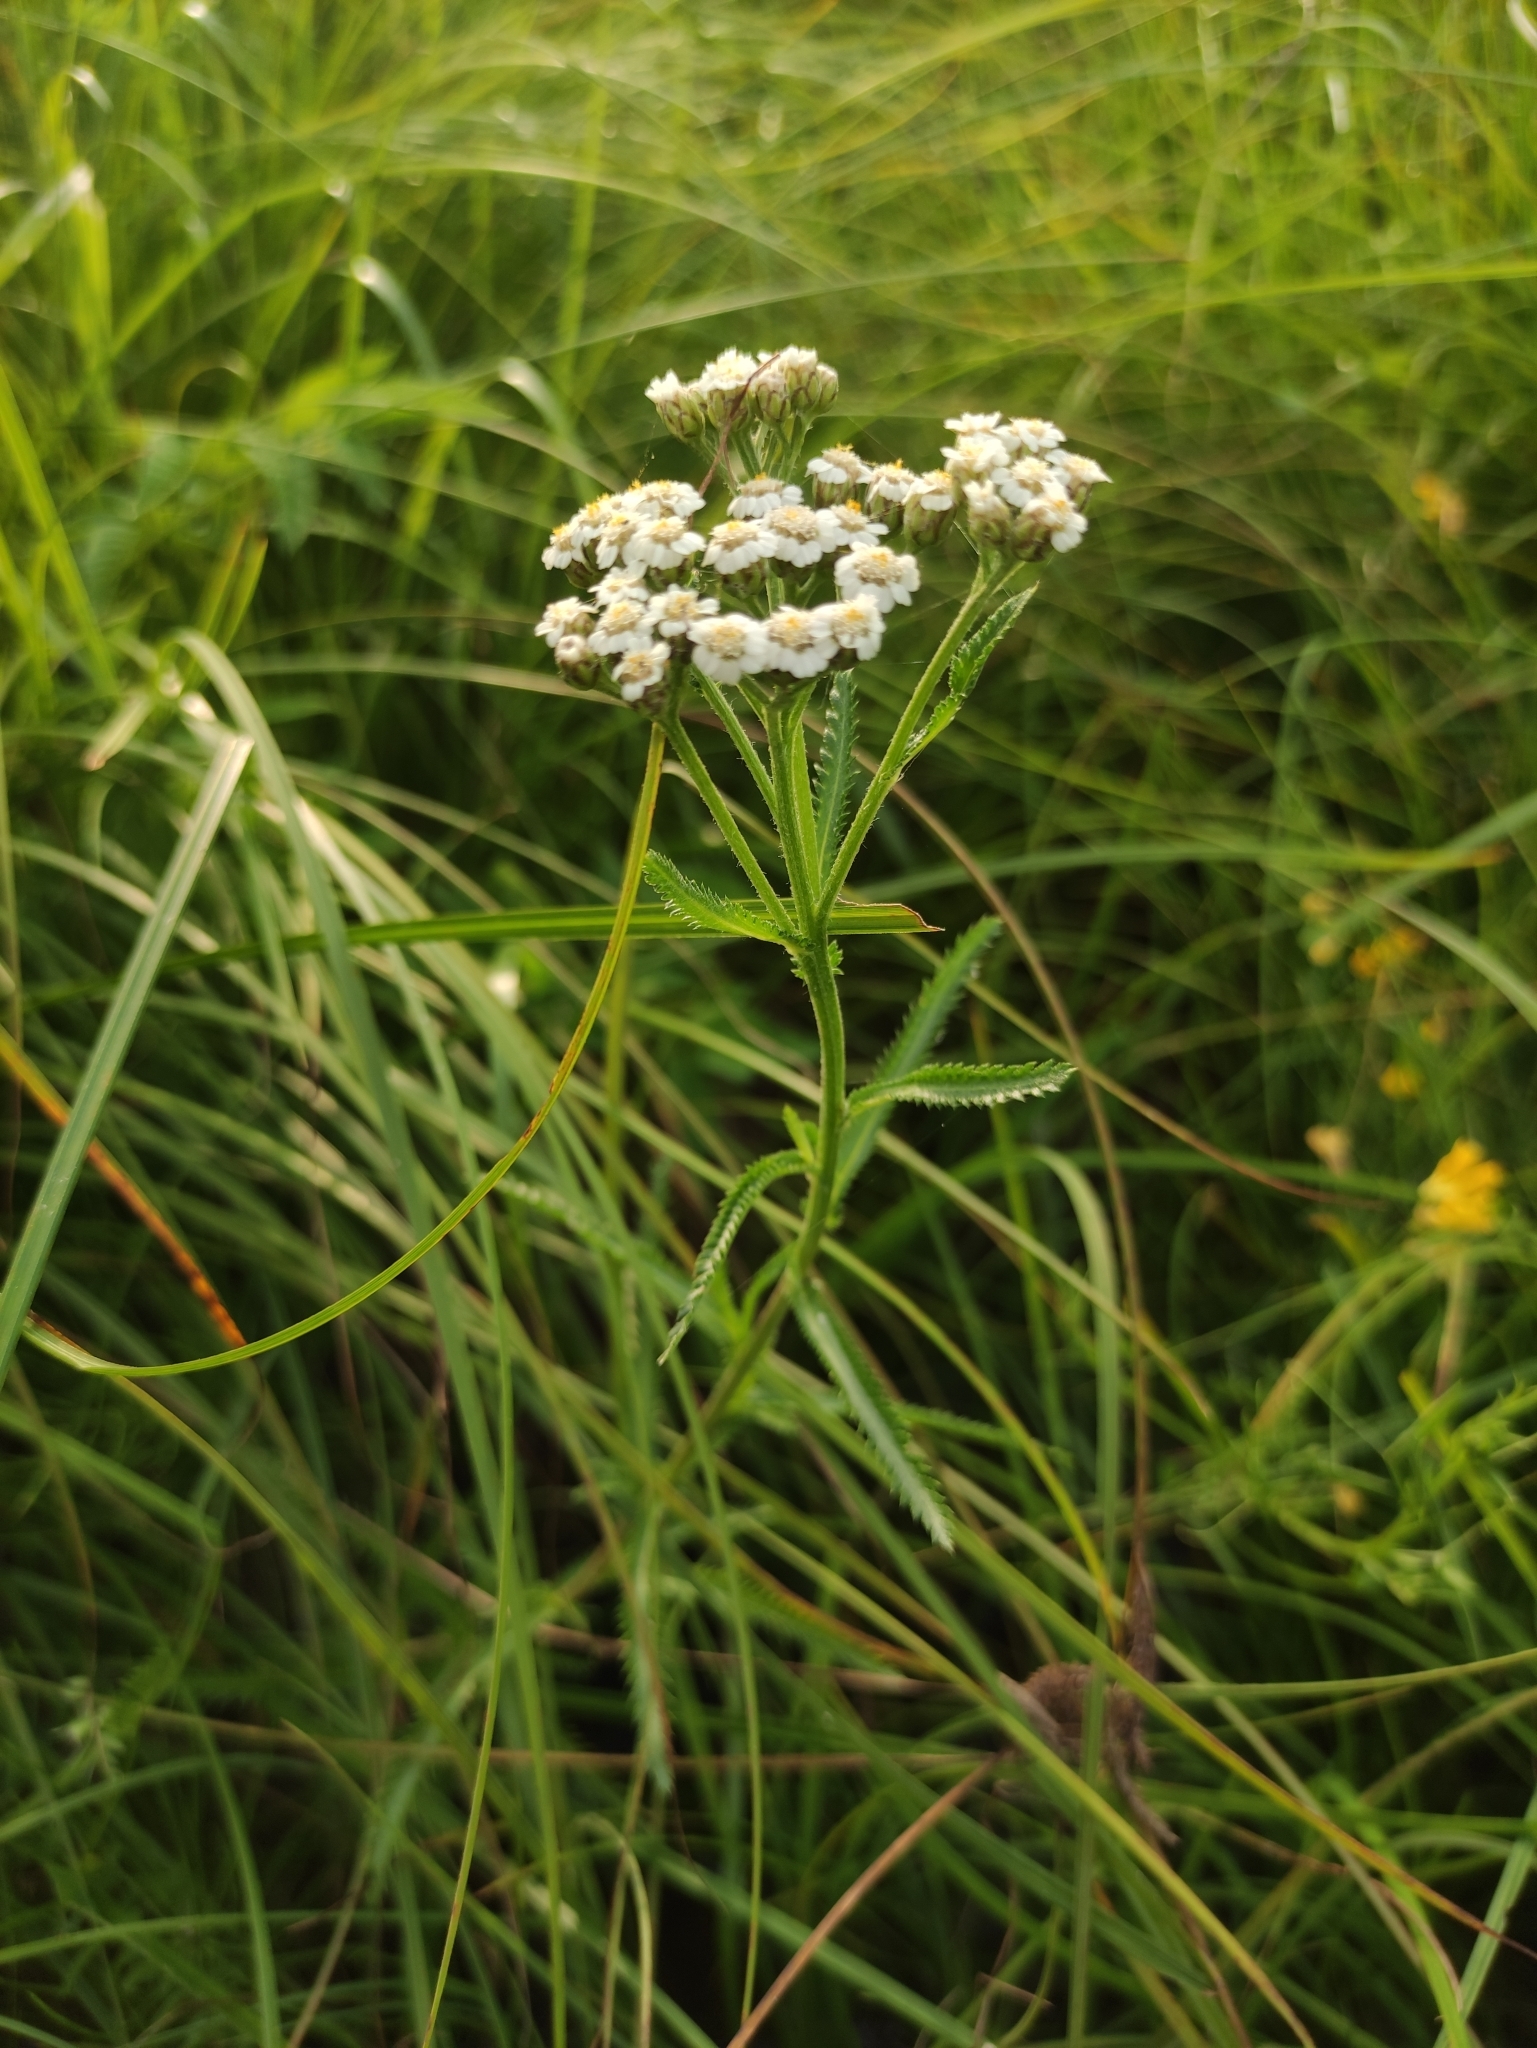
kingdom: Plantae
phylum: Tracheophyta
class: Magnoliopsida
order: Asterales
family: Asteraceae
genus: Achillea
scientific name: Achillea alpina
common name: Siberian yarrow
